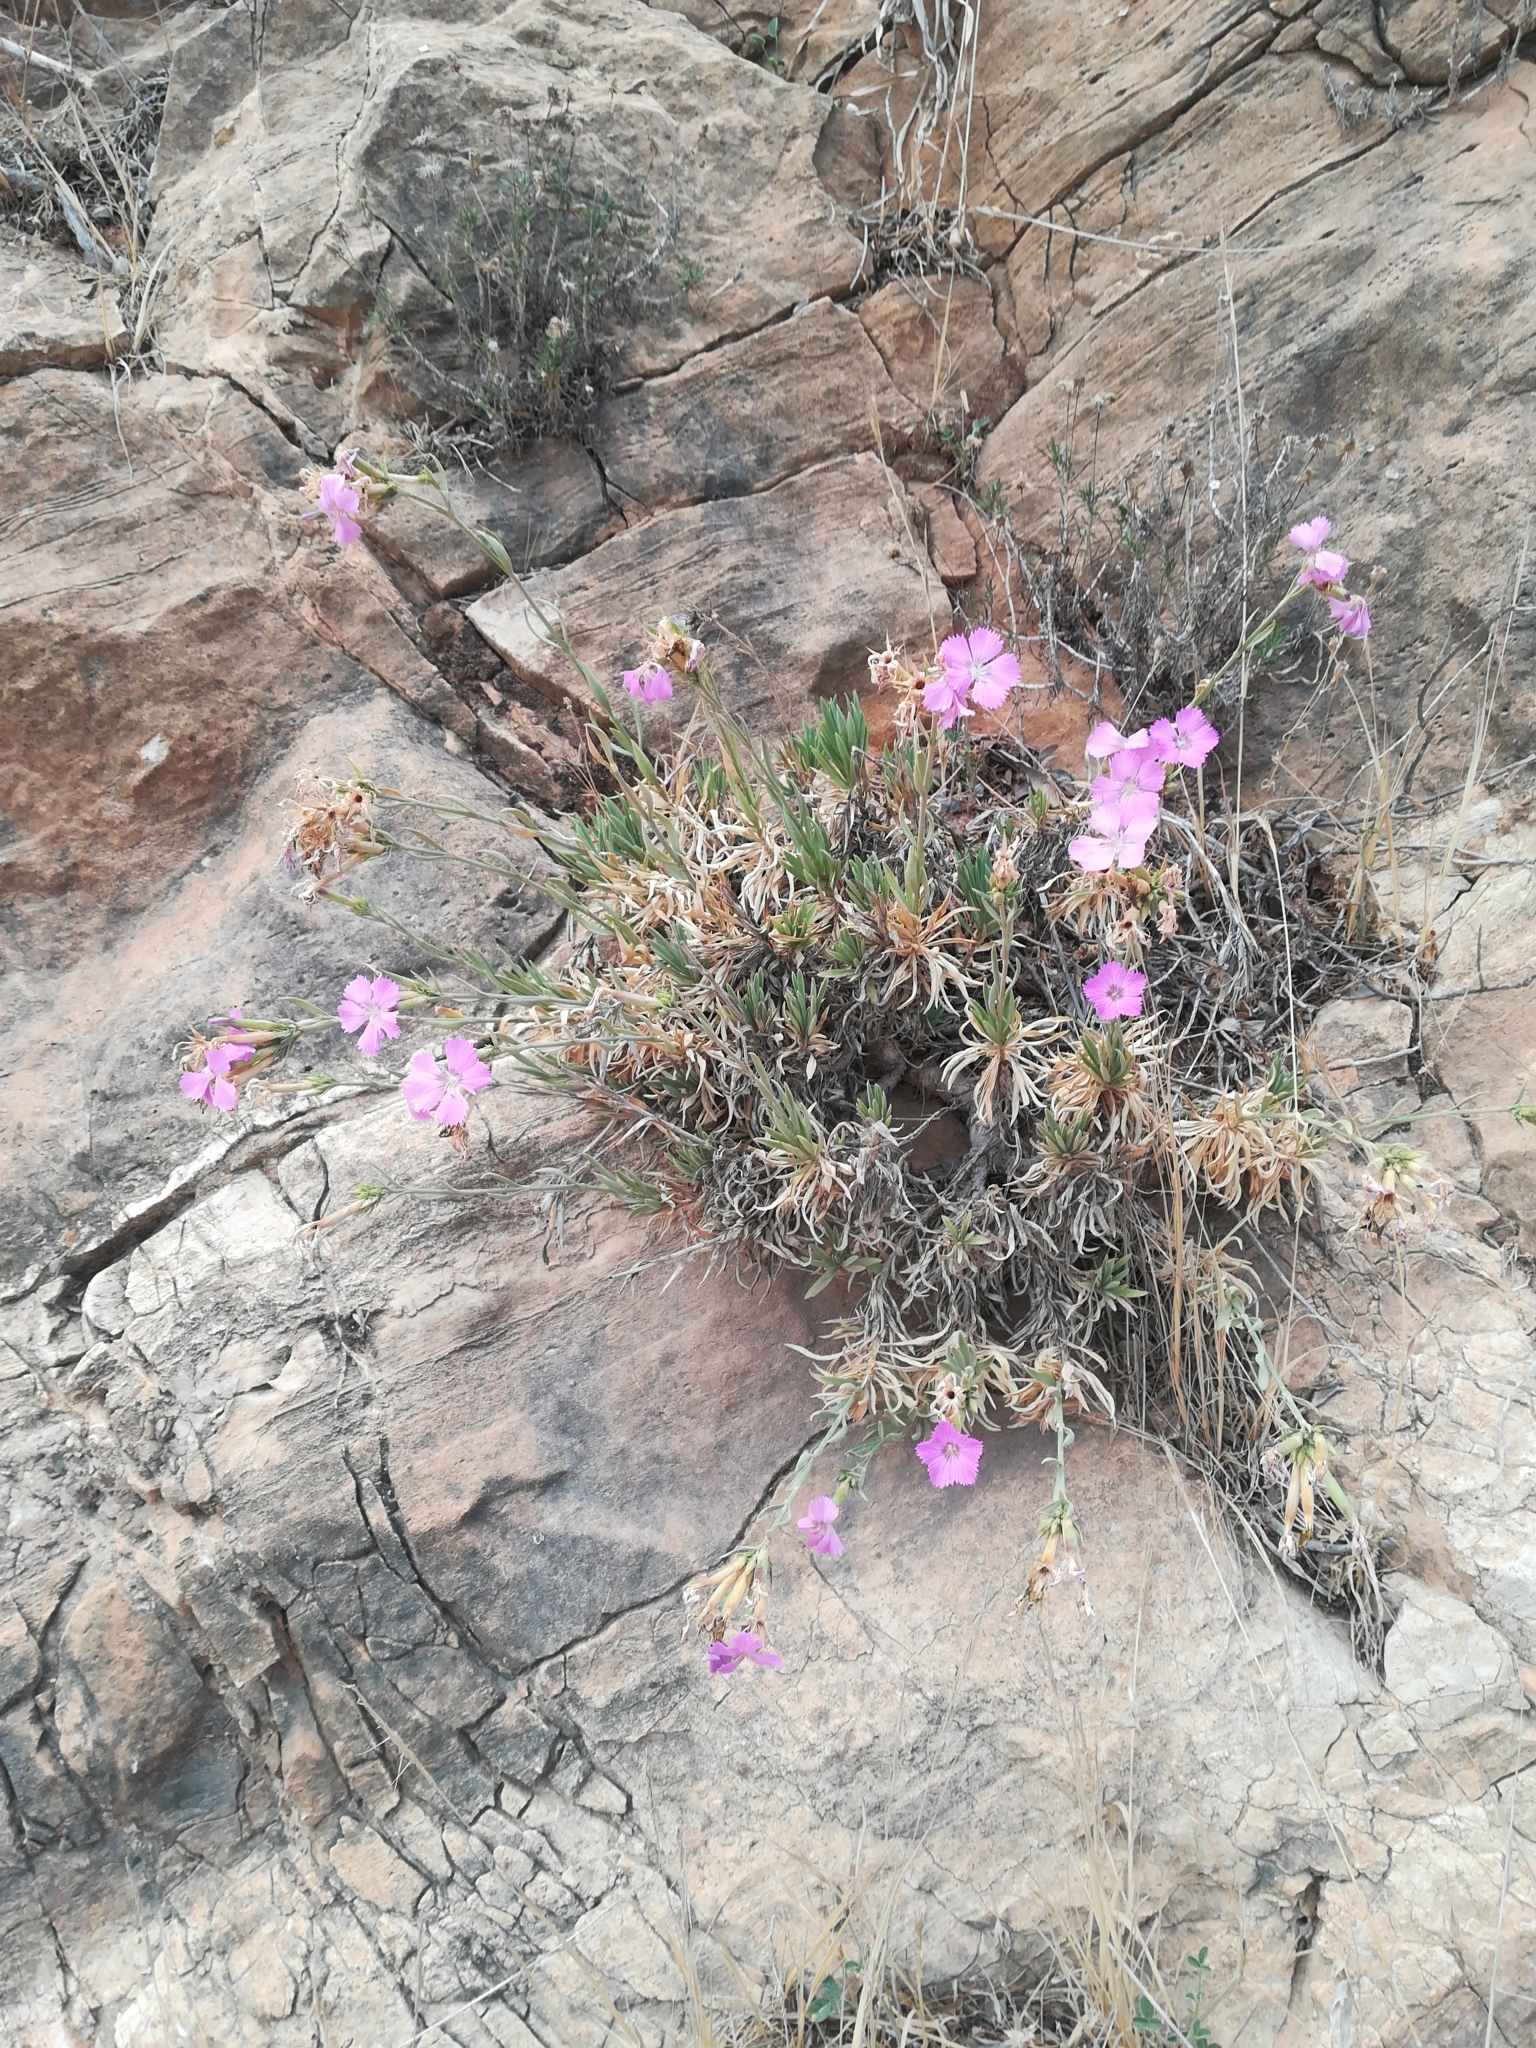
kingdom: Plantae
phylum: Tracheophyta
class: Magnoliopsida
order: Caryophyllales
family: Caryophyllaceae
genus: Dianthus
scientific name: Dianthus rupicola
